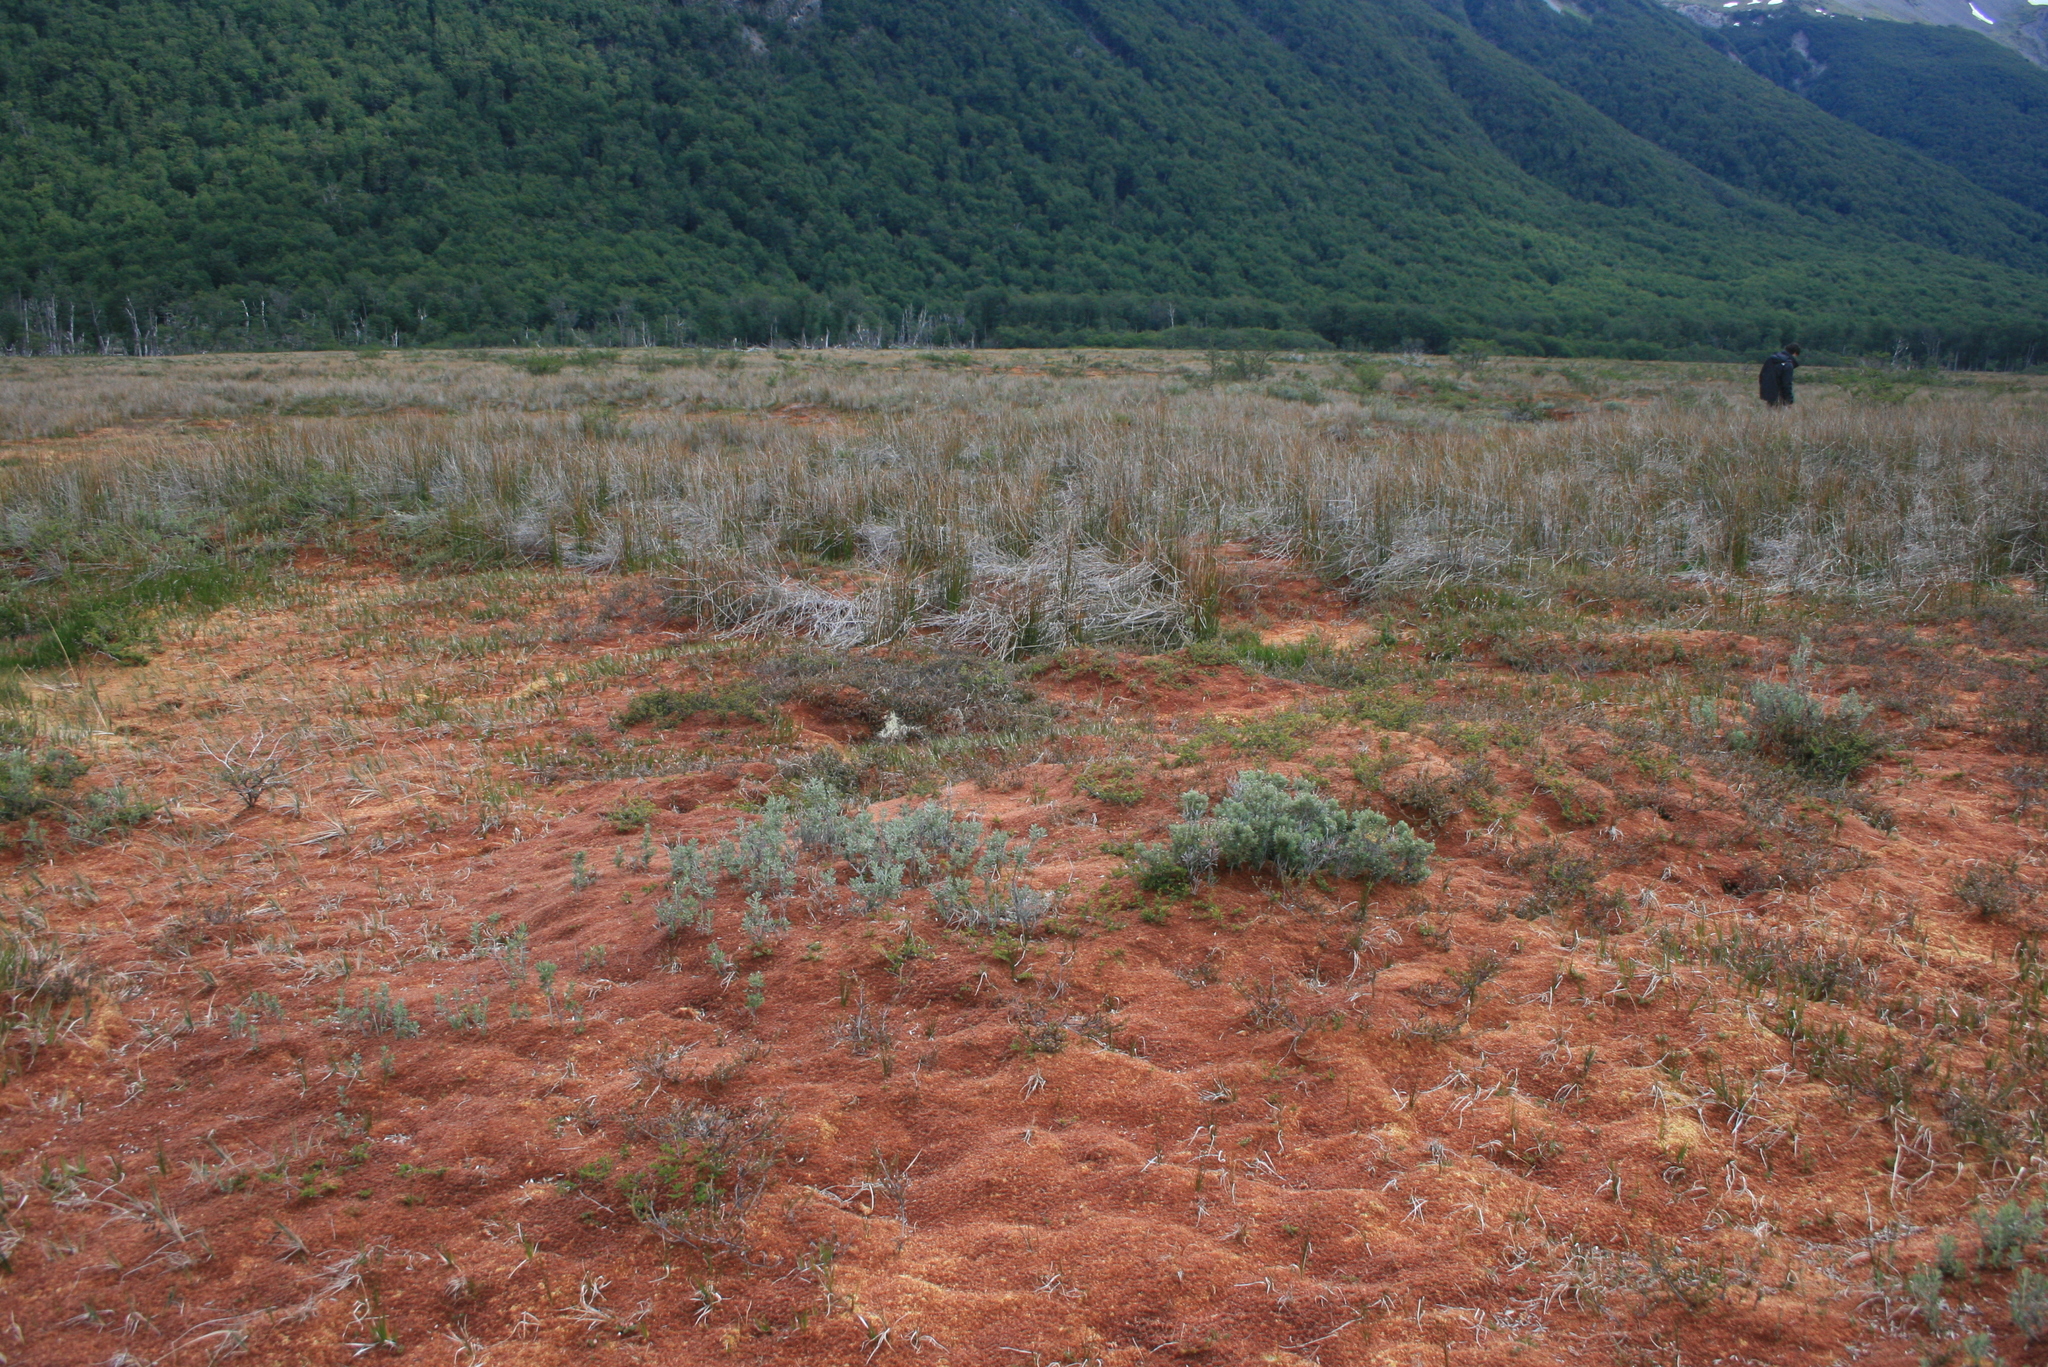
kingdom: Plantae
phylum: Bryophyta
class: Sphagnopsida
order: Sphagnales
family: Sphagnaceae
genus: Sphagnum
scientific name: Sphagnum magellanicum
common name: Magellan's peat moss
